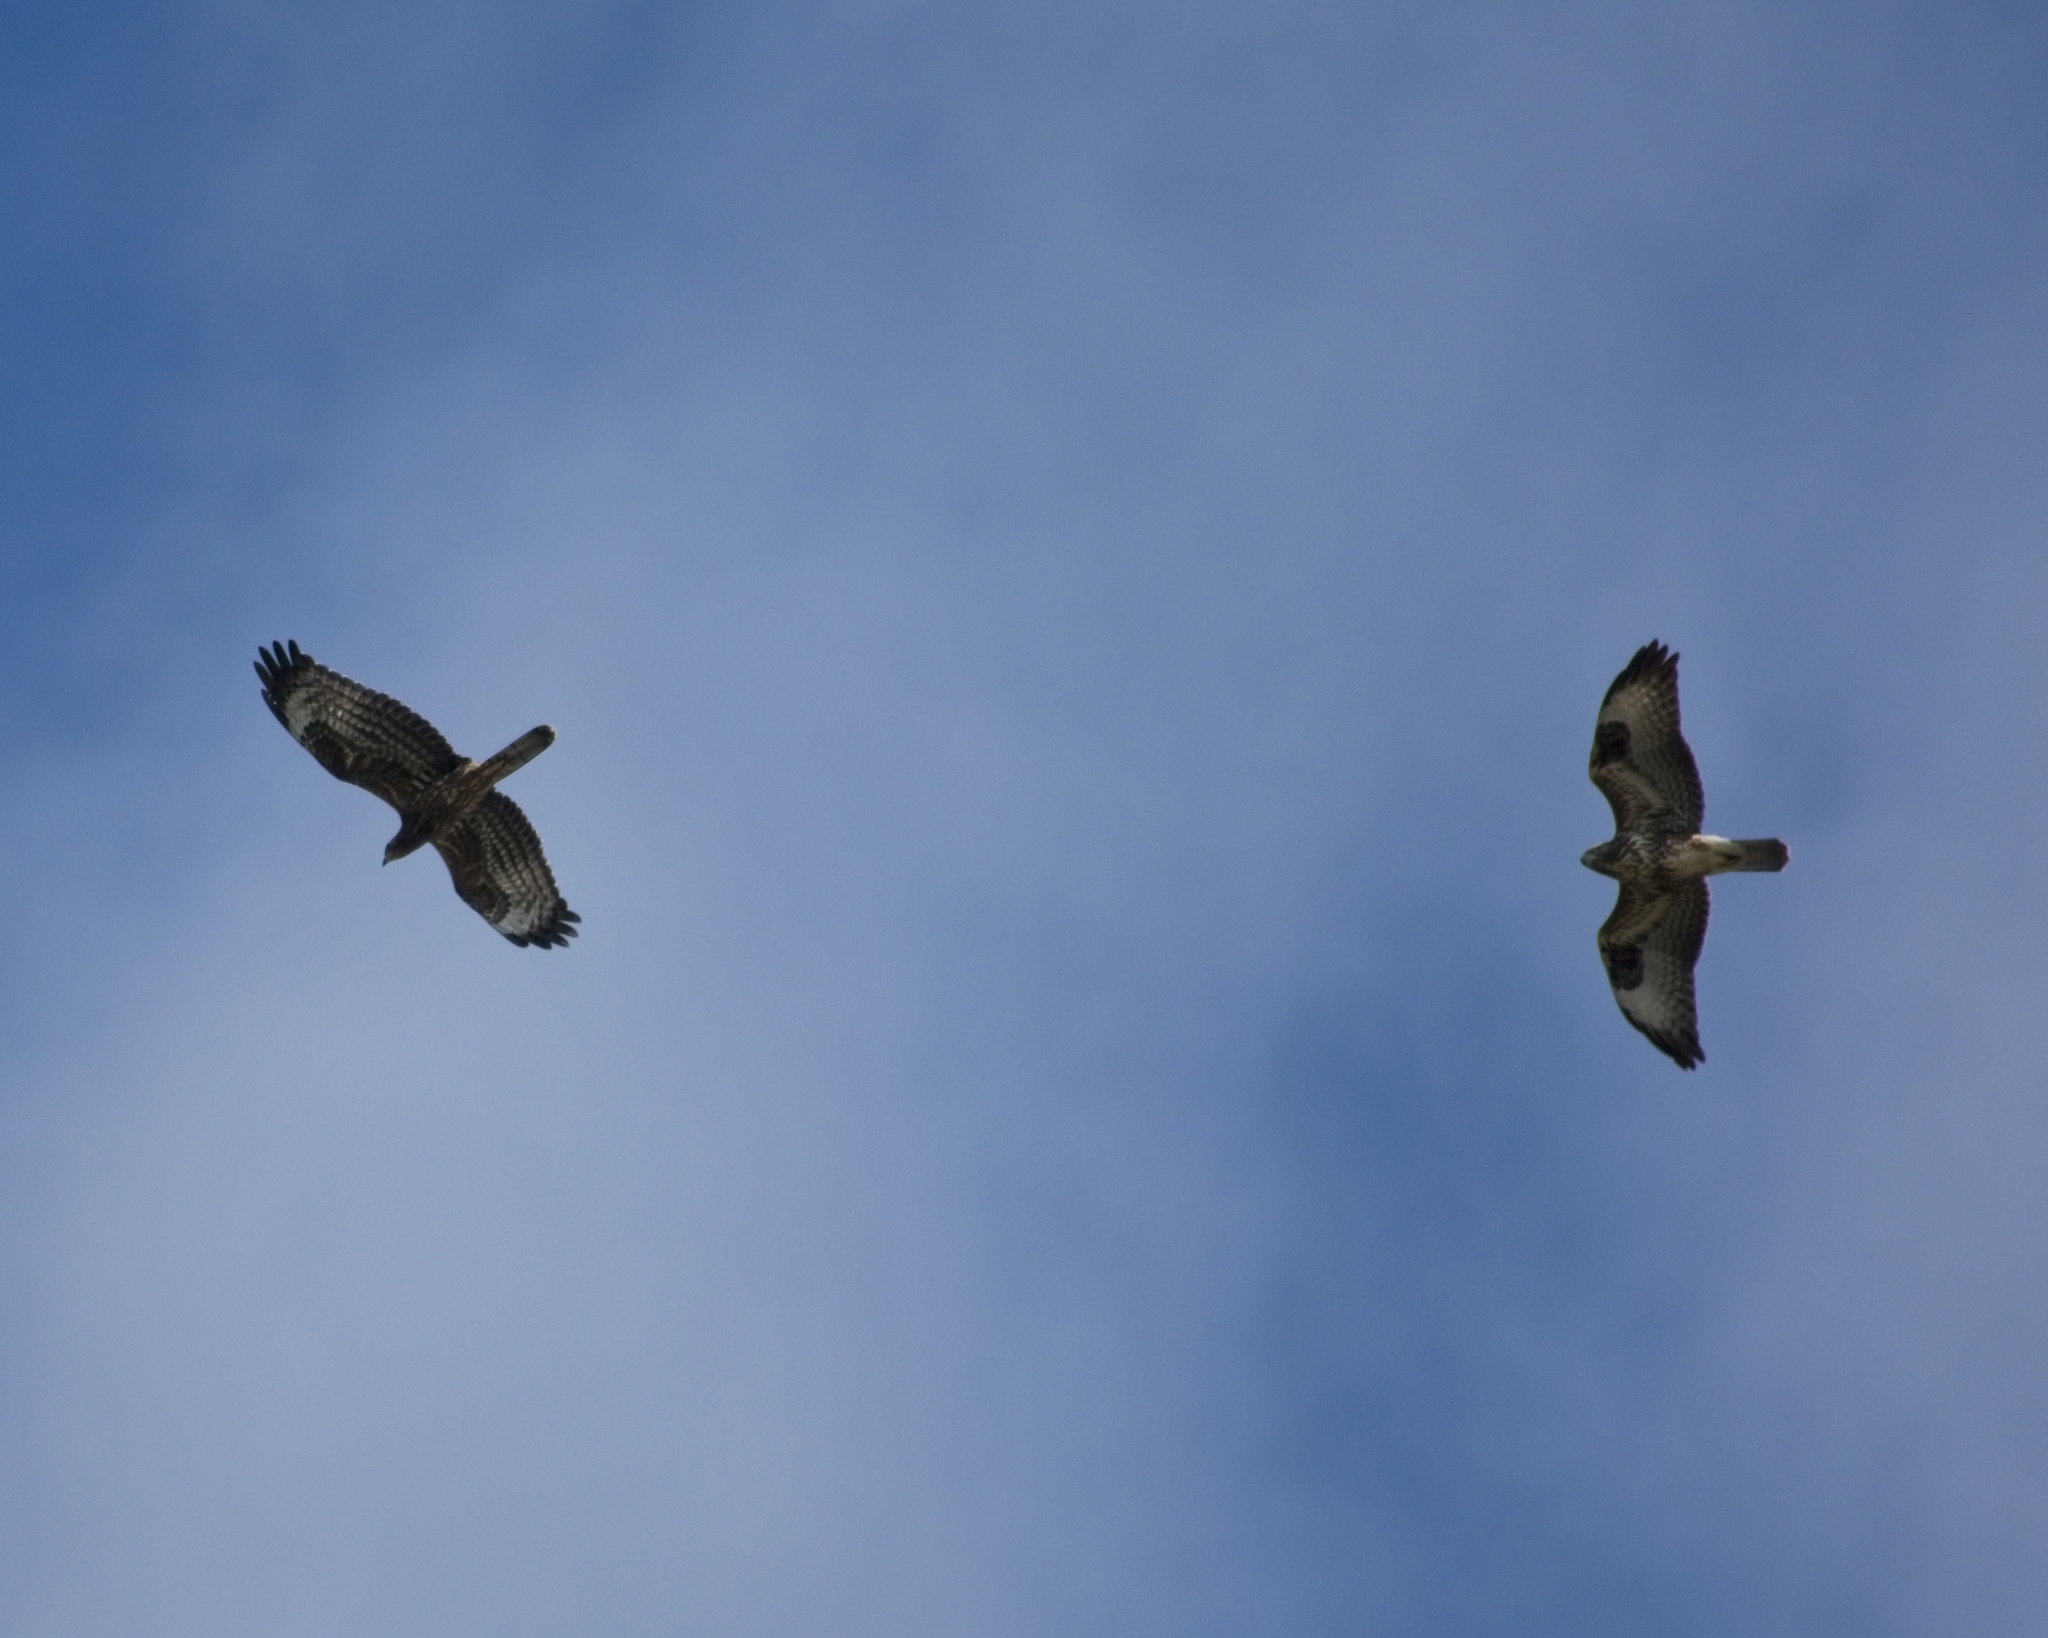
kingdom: Animalia
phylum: Chordata
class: Aves
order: Accipitriformes
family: Accipitridae
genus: Pernis
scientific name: Pernis apivorus
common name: European honey buzzard
